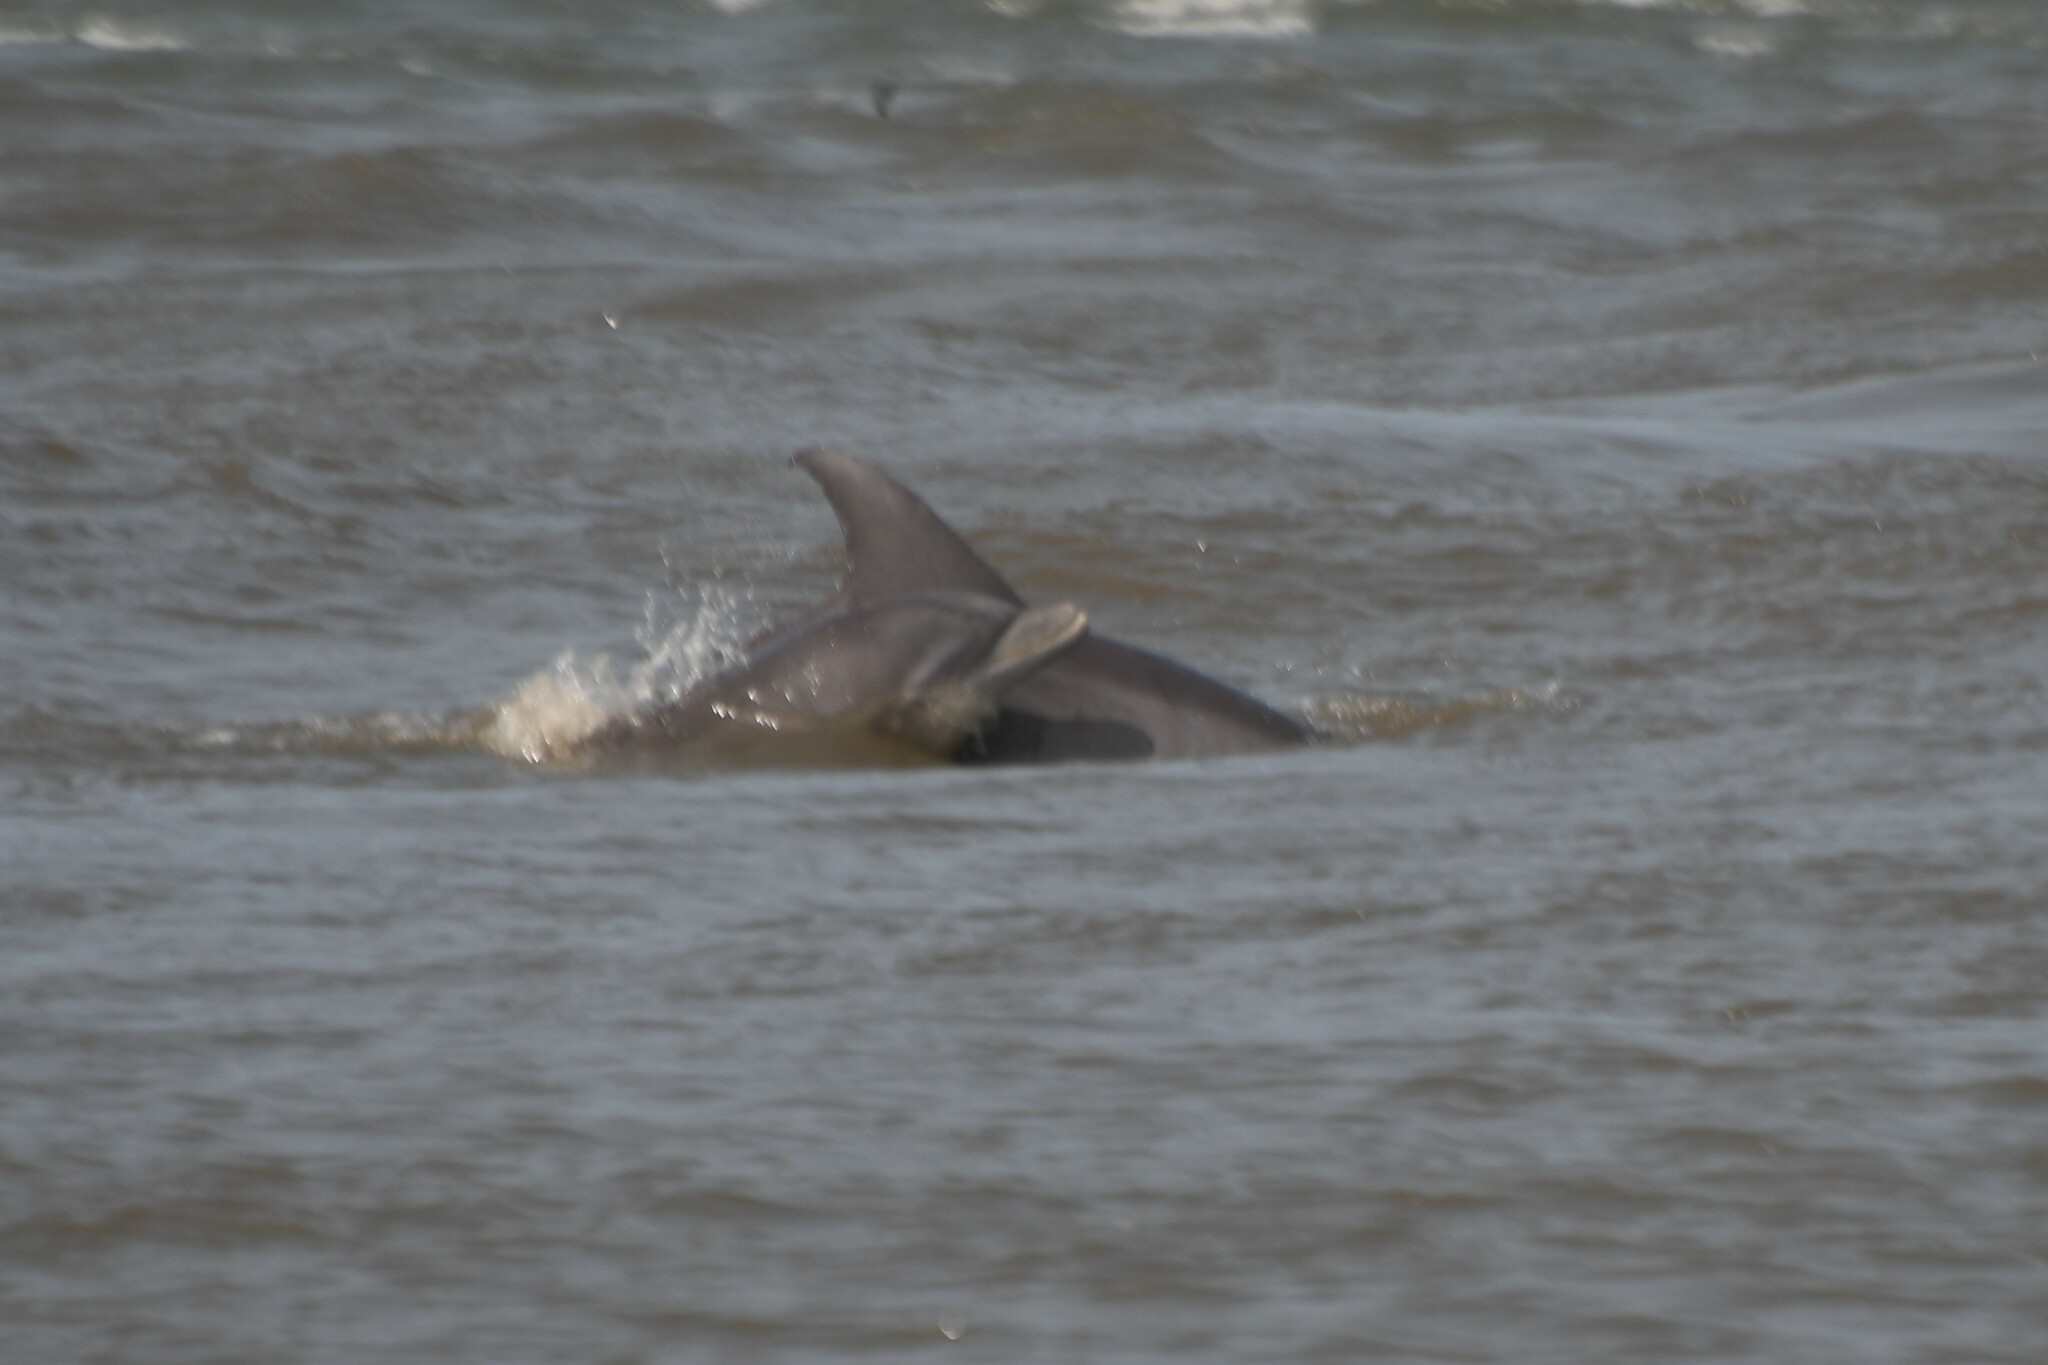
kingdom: Animalia
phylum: Chordata
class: Mammalia
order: Cetacea
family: Delphinidae
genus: Tursiops
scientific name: Tursiops truncatus
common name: Bottlenose dolphin
